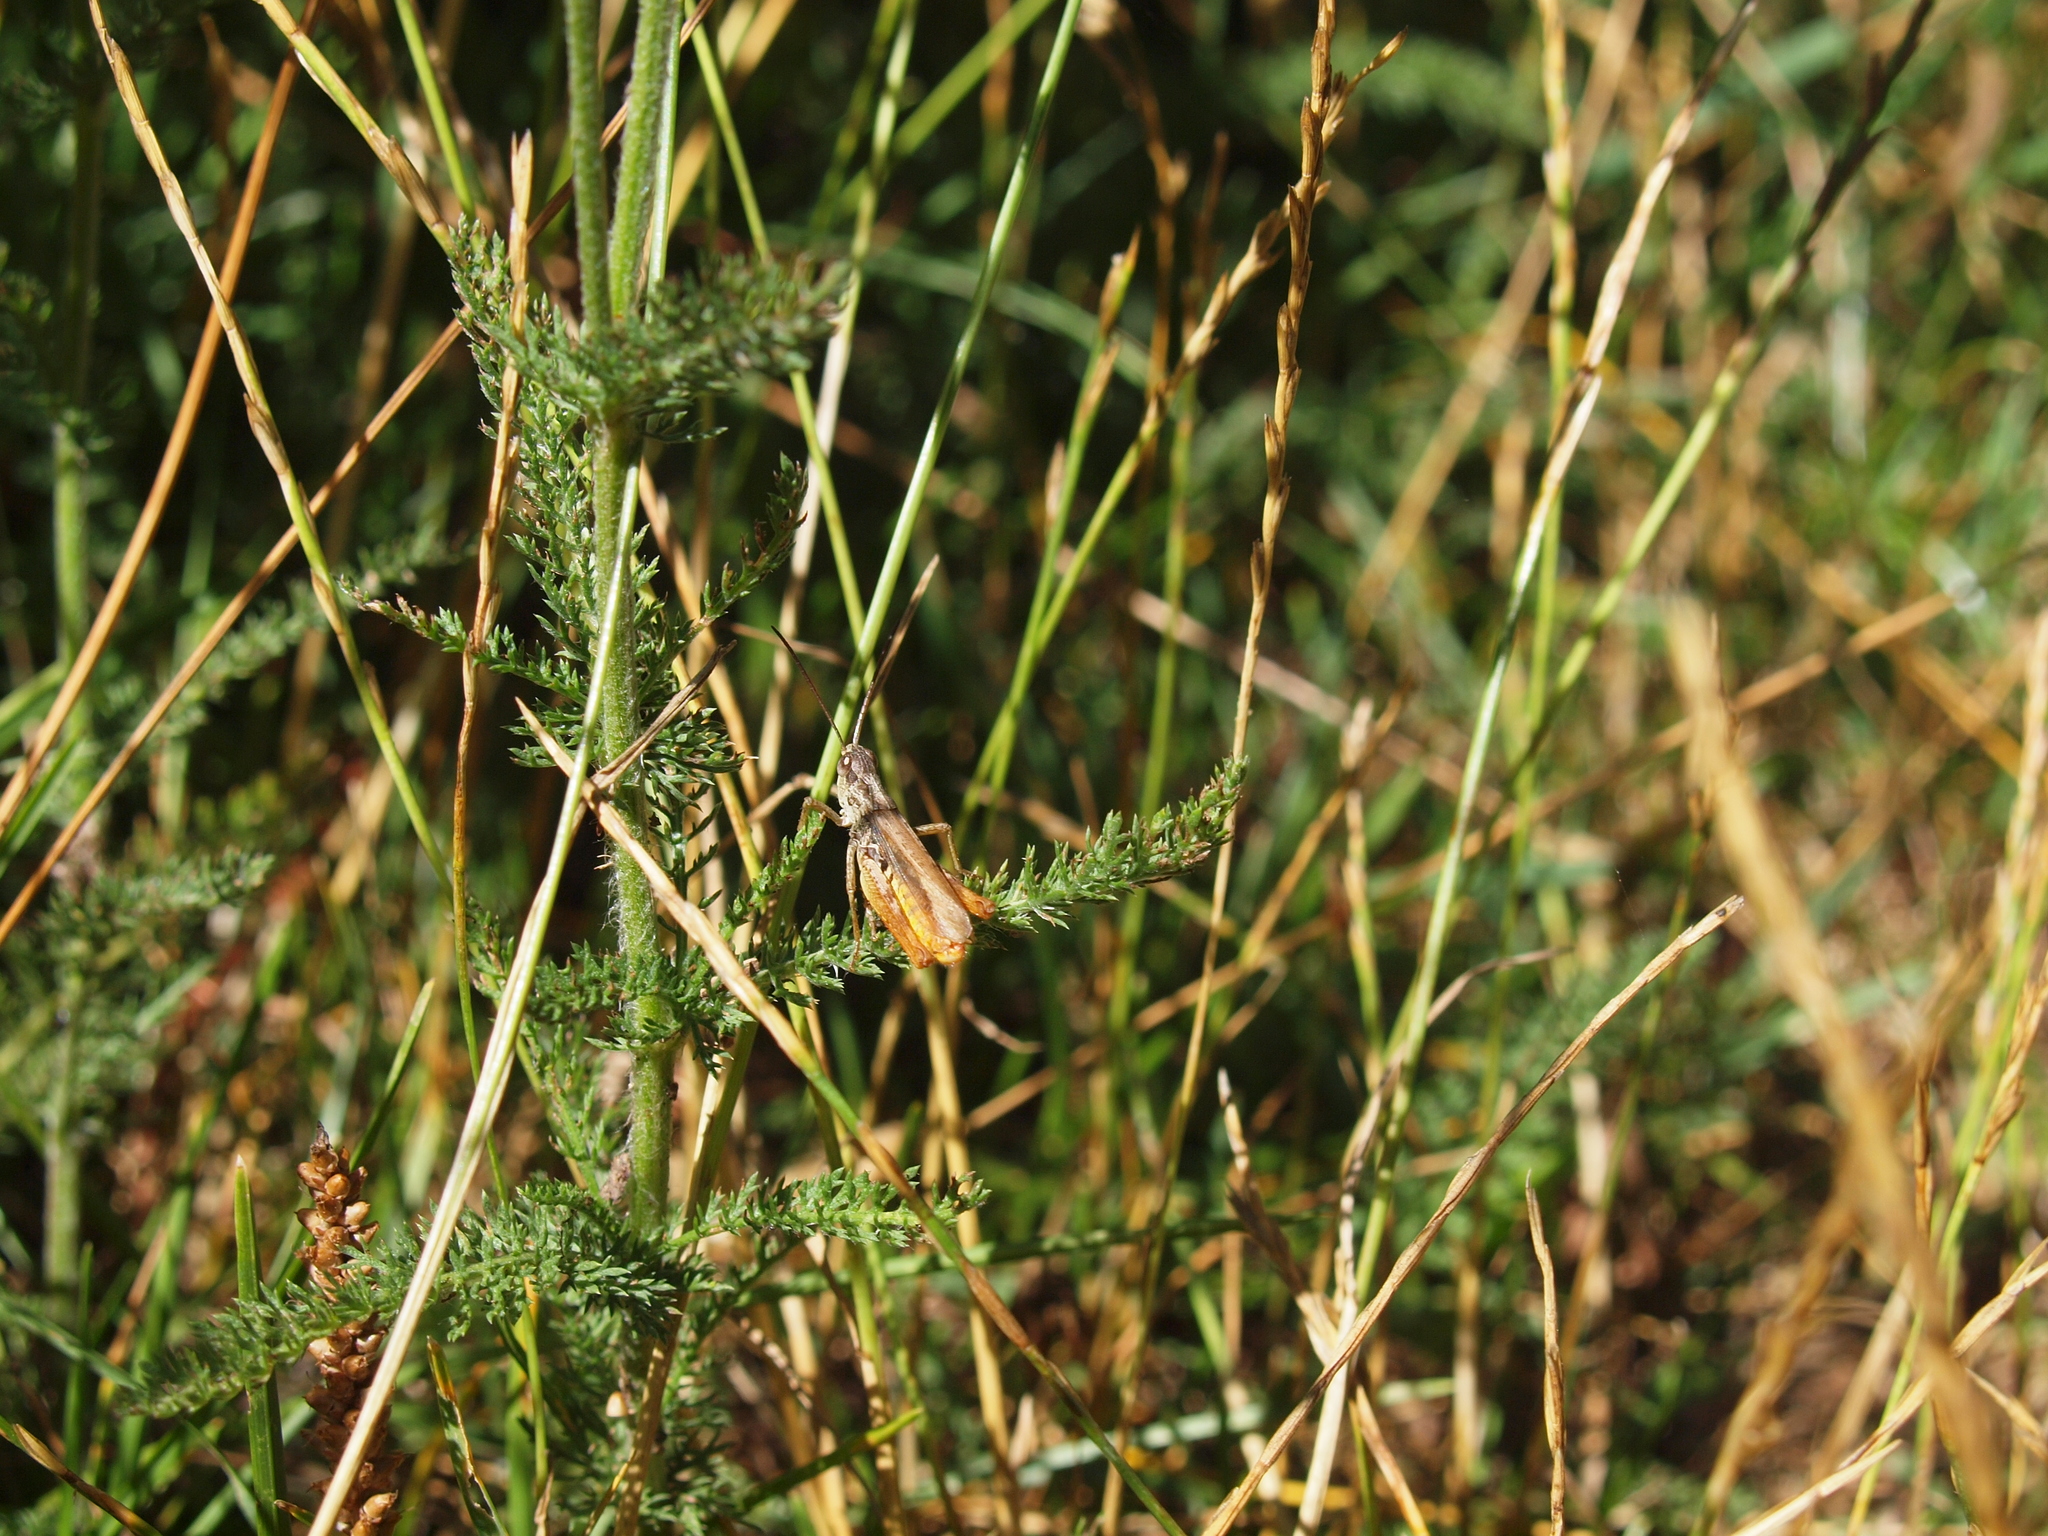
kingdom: Animalia
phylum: Arthropoda
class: Insecta
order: Orthoptera
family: Acrididae
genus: Chorthippus
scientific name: Chorthippus apricarius
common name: Upland field grasshopper
